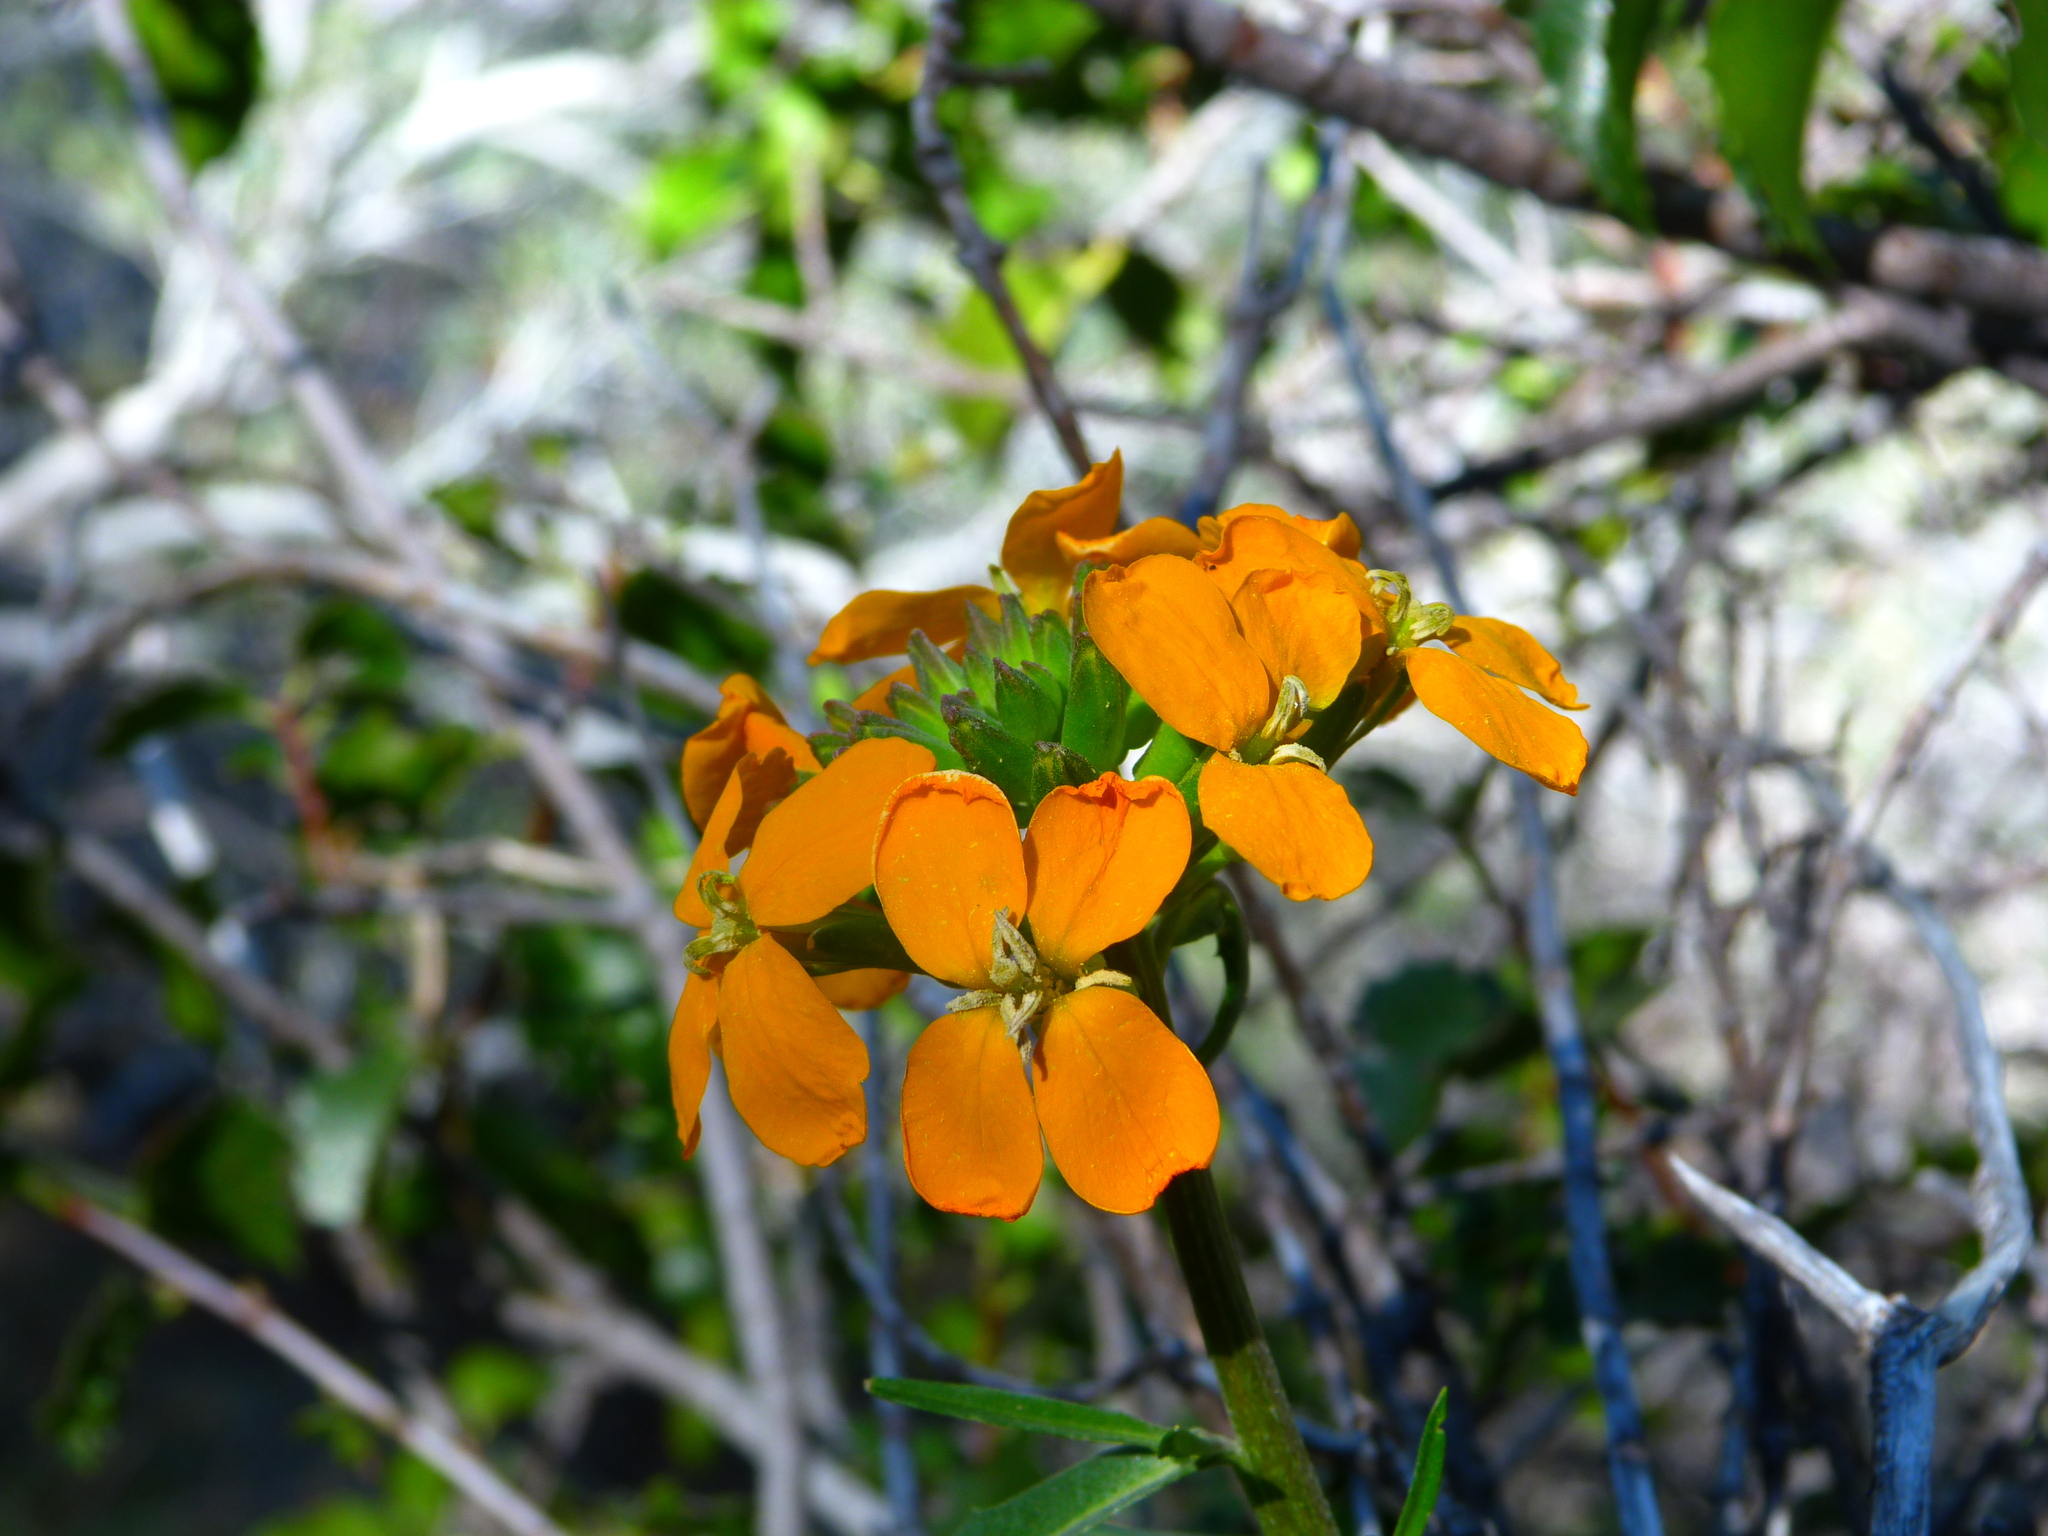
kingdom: Plantae
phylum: Tracheophyta
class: Magnoliopsida
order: Brassicales
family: Brassicaceae
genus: Erysimum
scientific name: Erysimum capitatum
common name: Western wallflower
